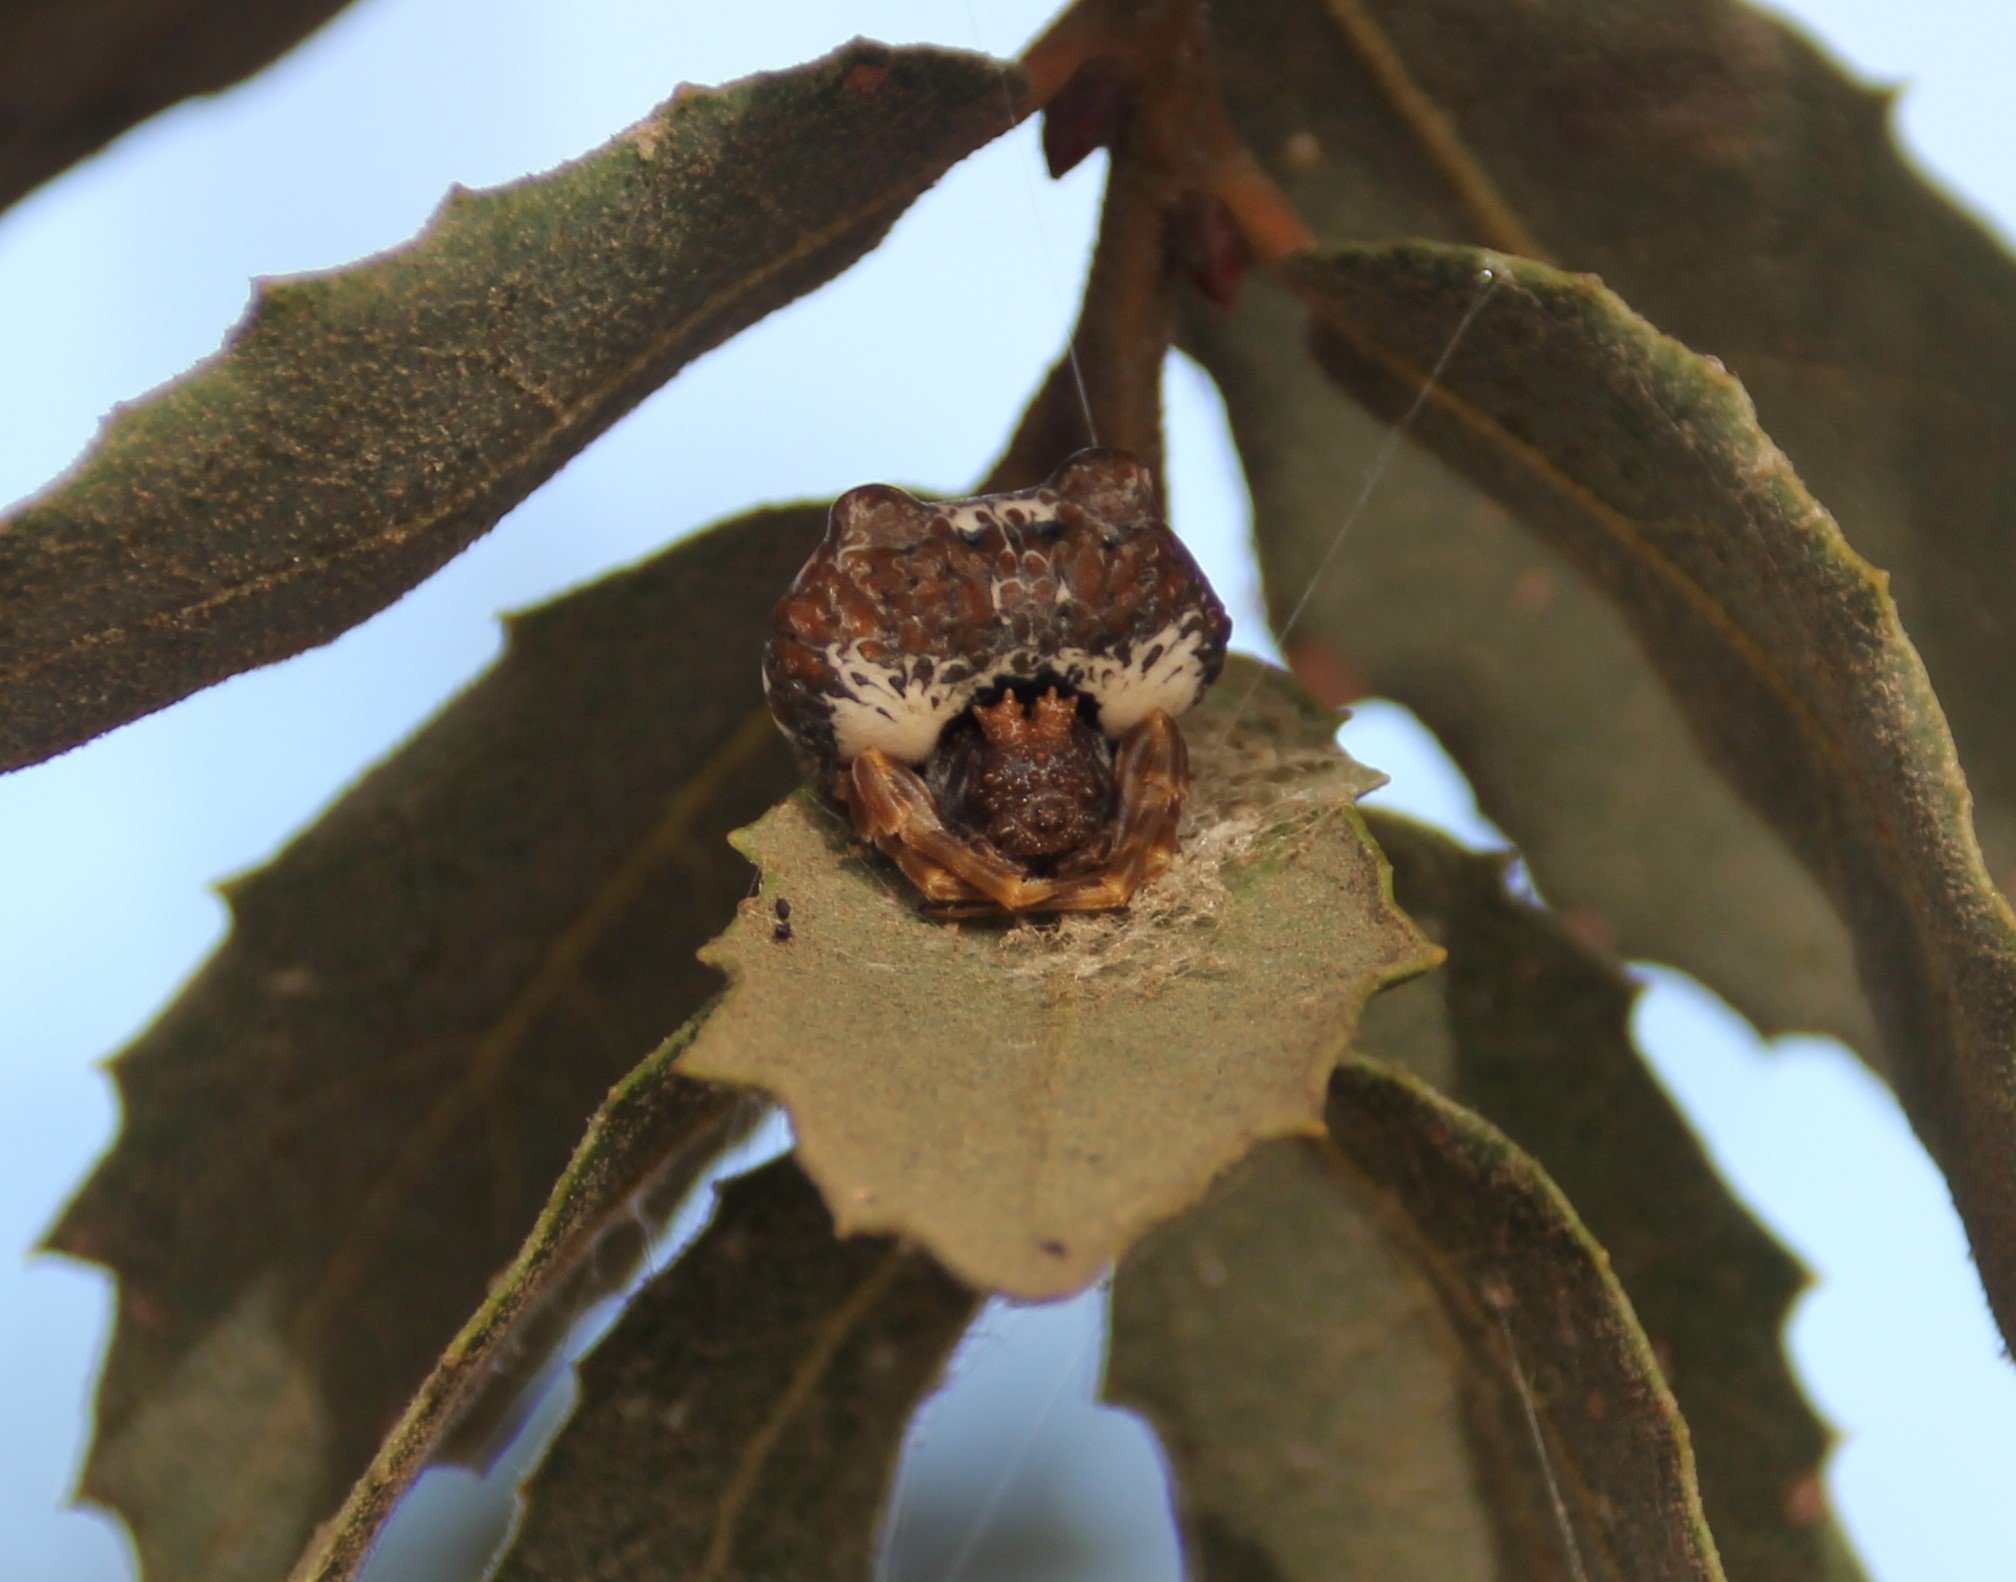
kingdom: Animalia
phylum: Arthropoda
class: Arachnida
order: Araneae
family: Araneidae
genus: Mastophora
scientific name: Mastophora cornigera
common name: Orb weavers
